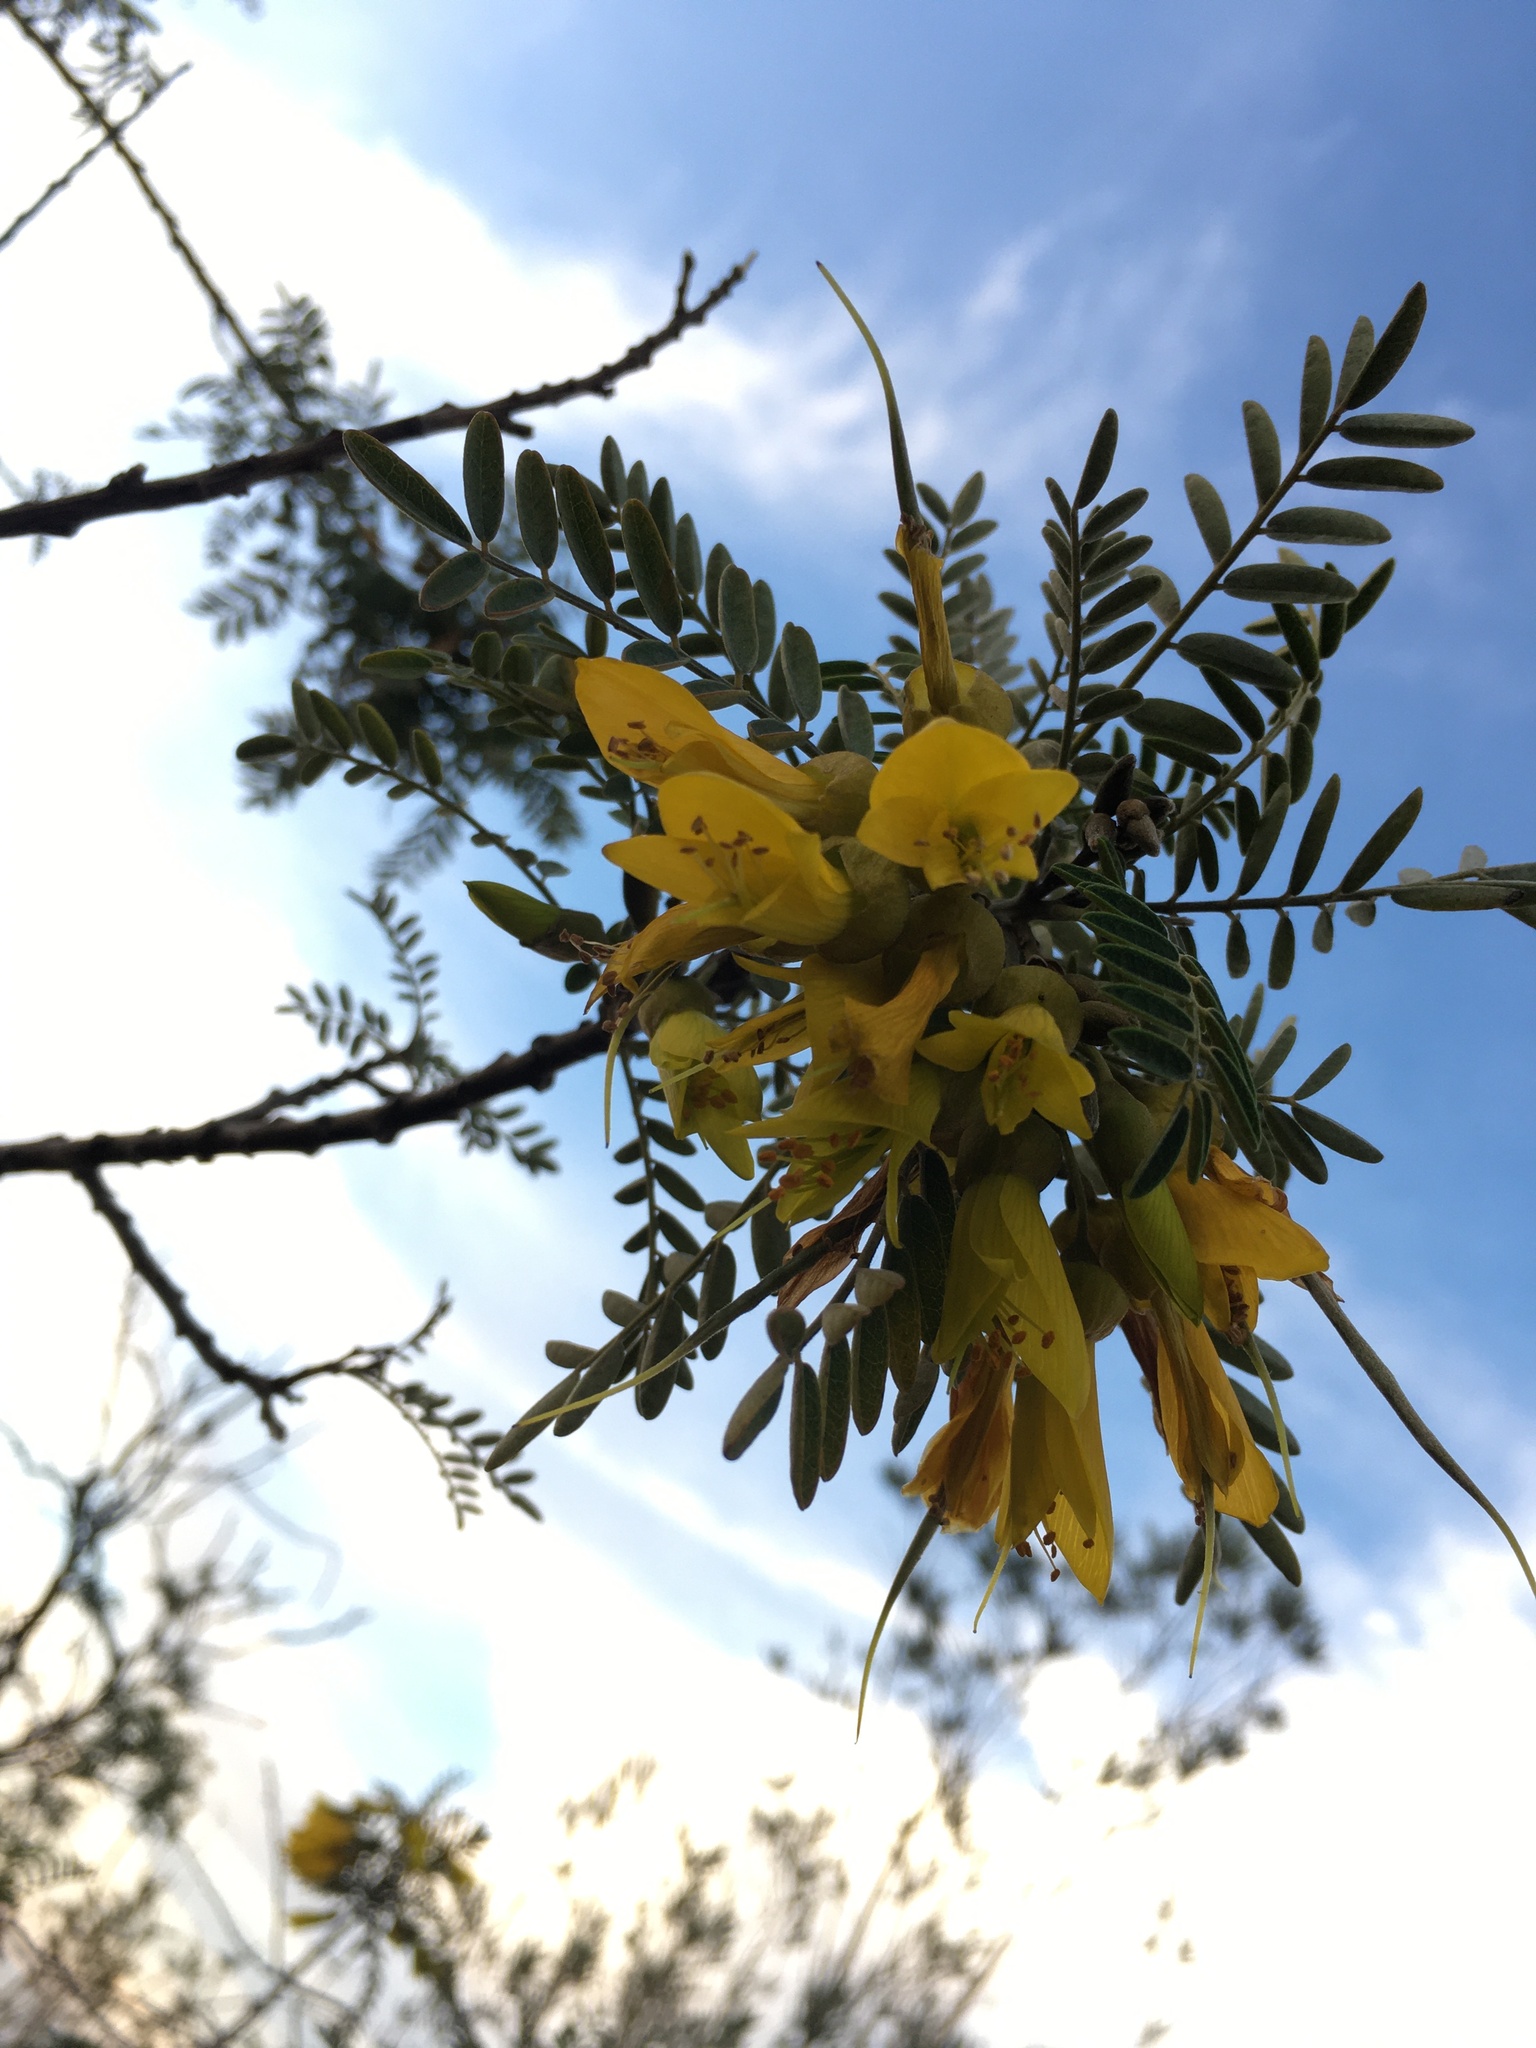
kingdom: Plantae
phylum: Tracheophyta
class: Magnoliopsida
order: Fabales
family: Fabaceae
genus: Sophora
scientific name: Sophora macrocarpa
